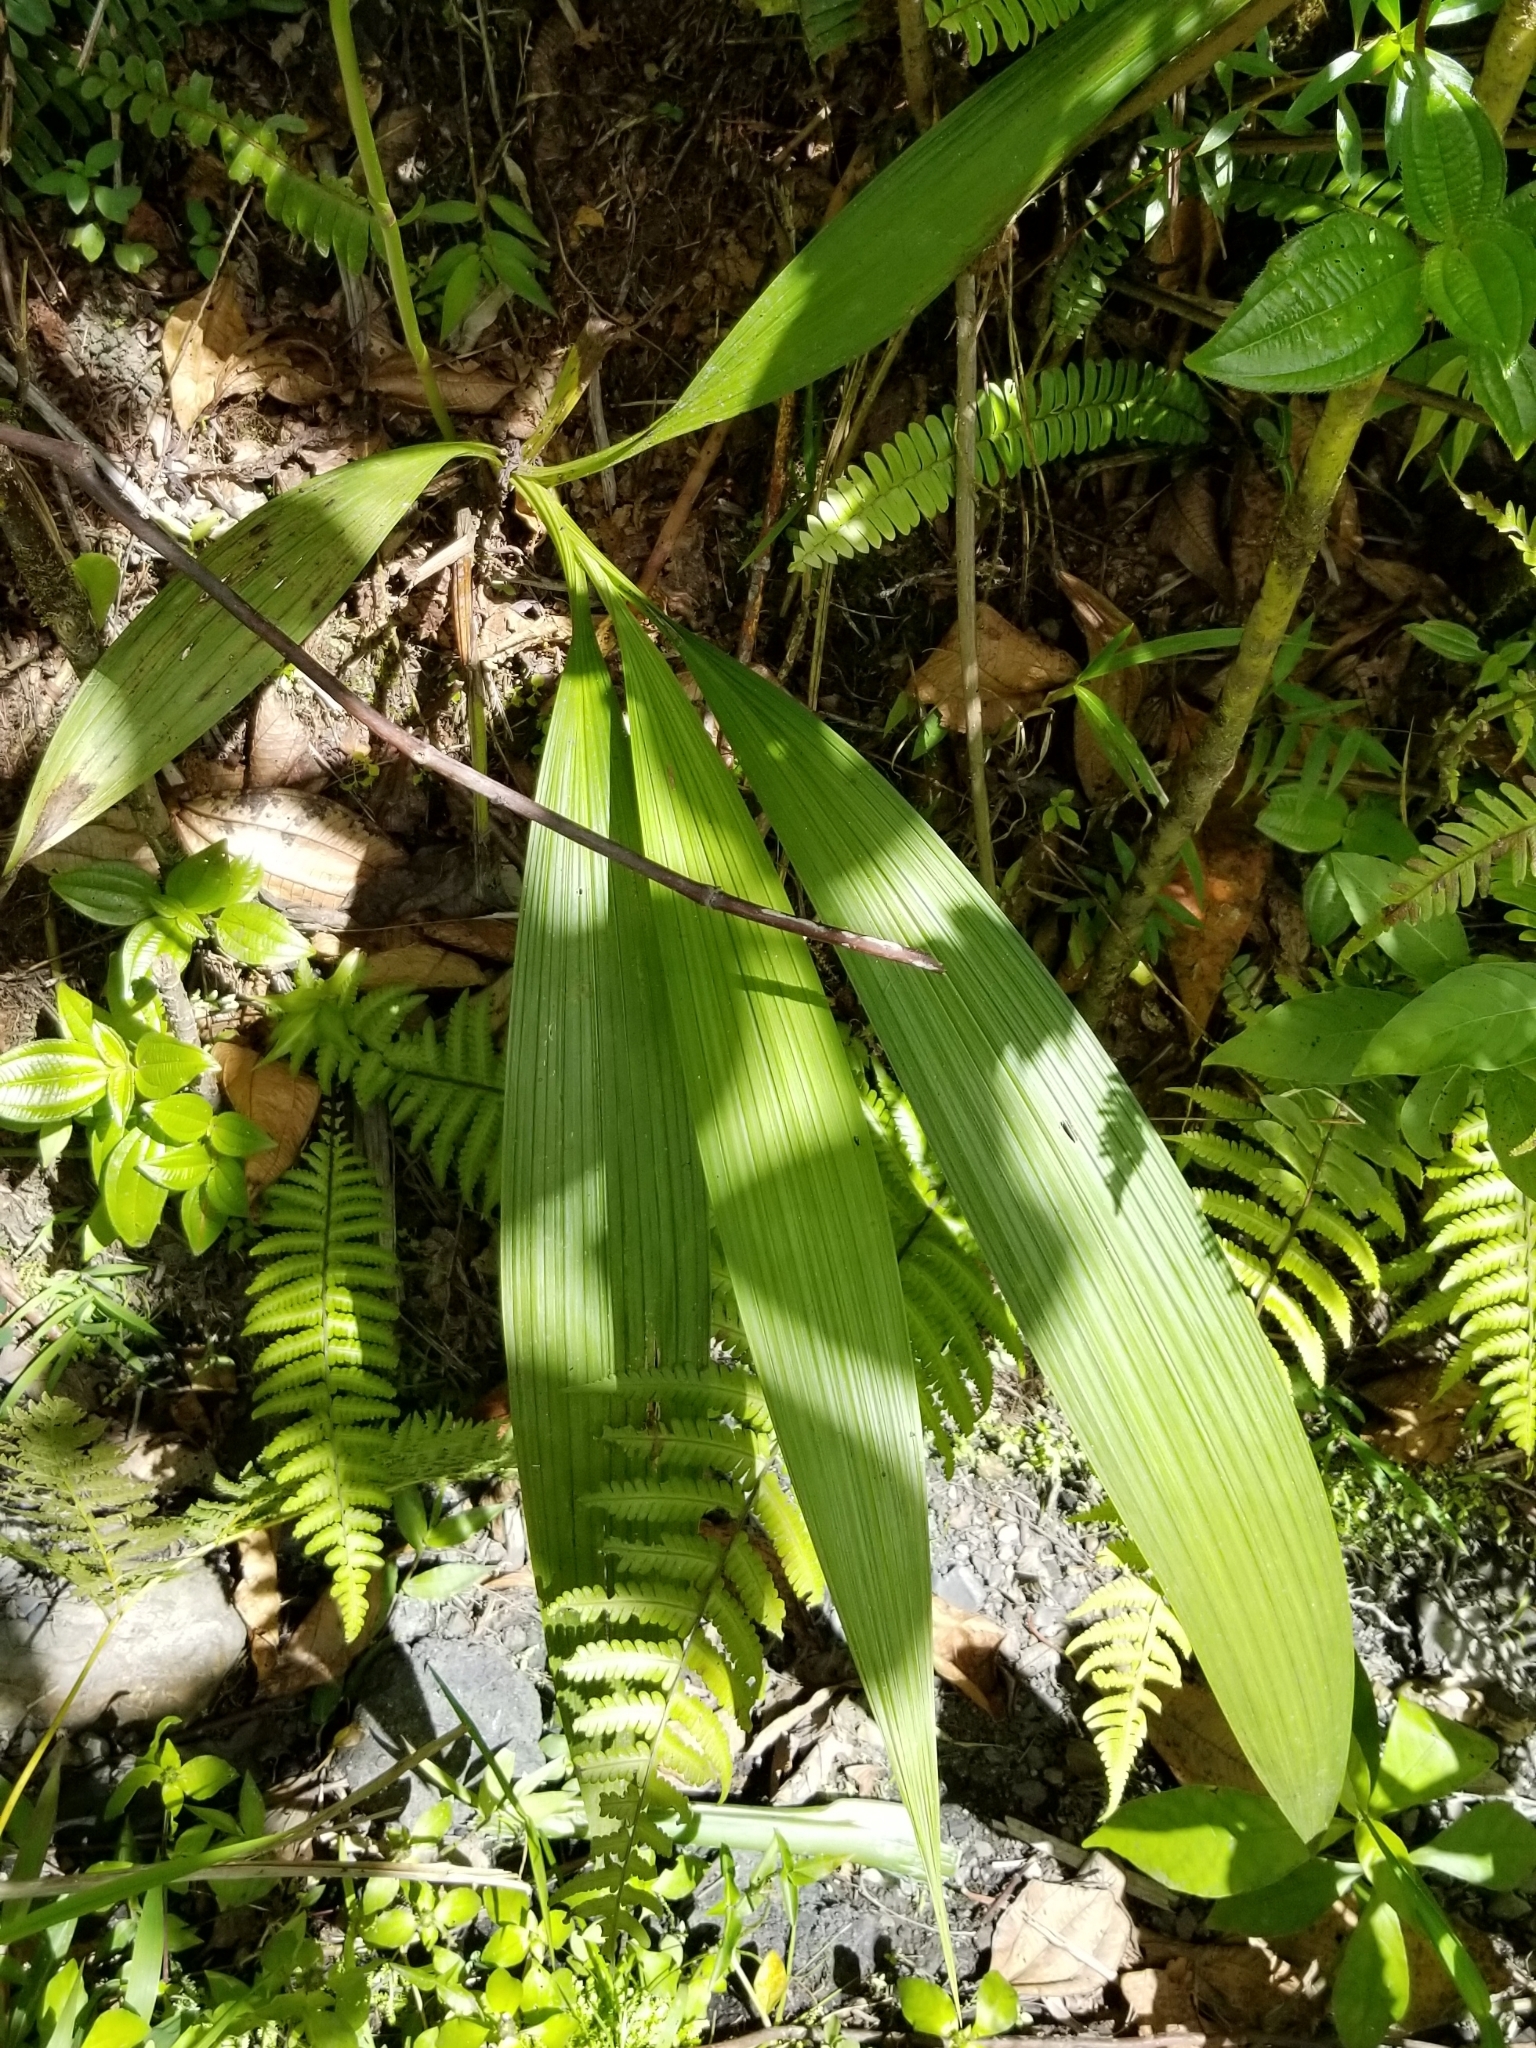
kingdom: Plantae
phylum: Tracheophyta
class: Liliopsida
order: Asparagales
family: Orchidaceae
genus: Spathoglottis
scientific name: Spathoglottis plicata
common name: Philippine ground orchid
